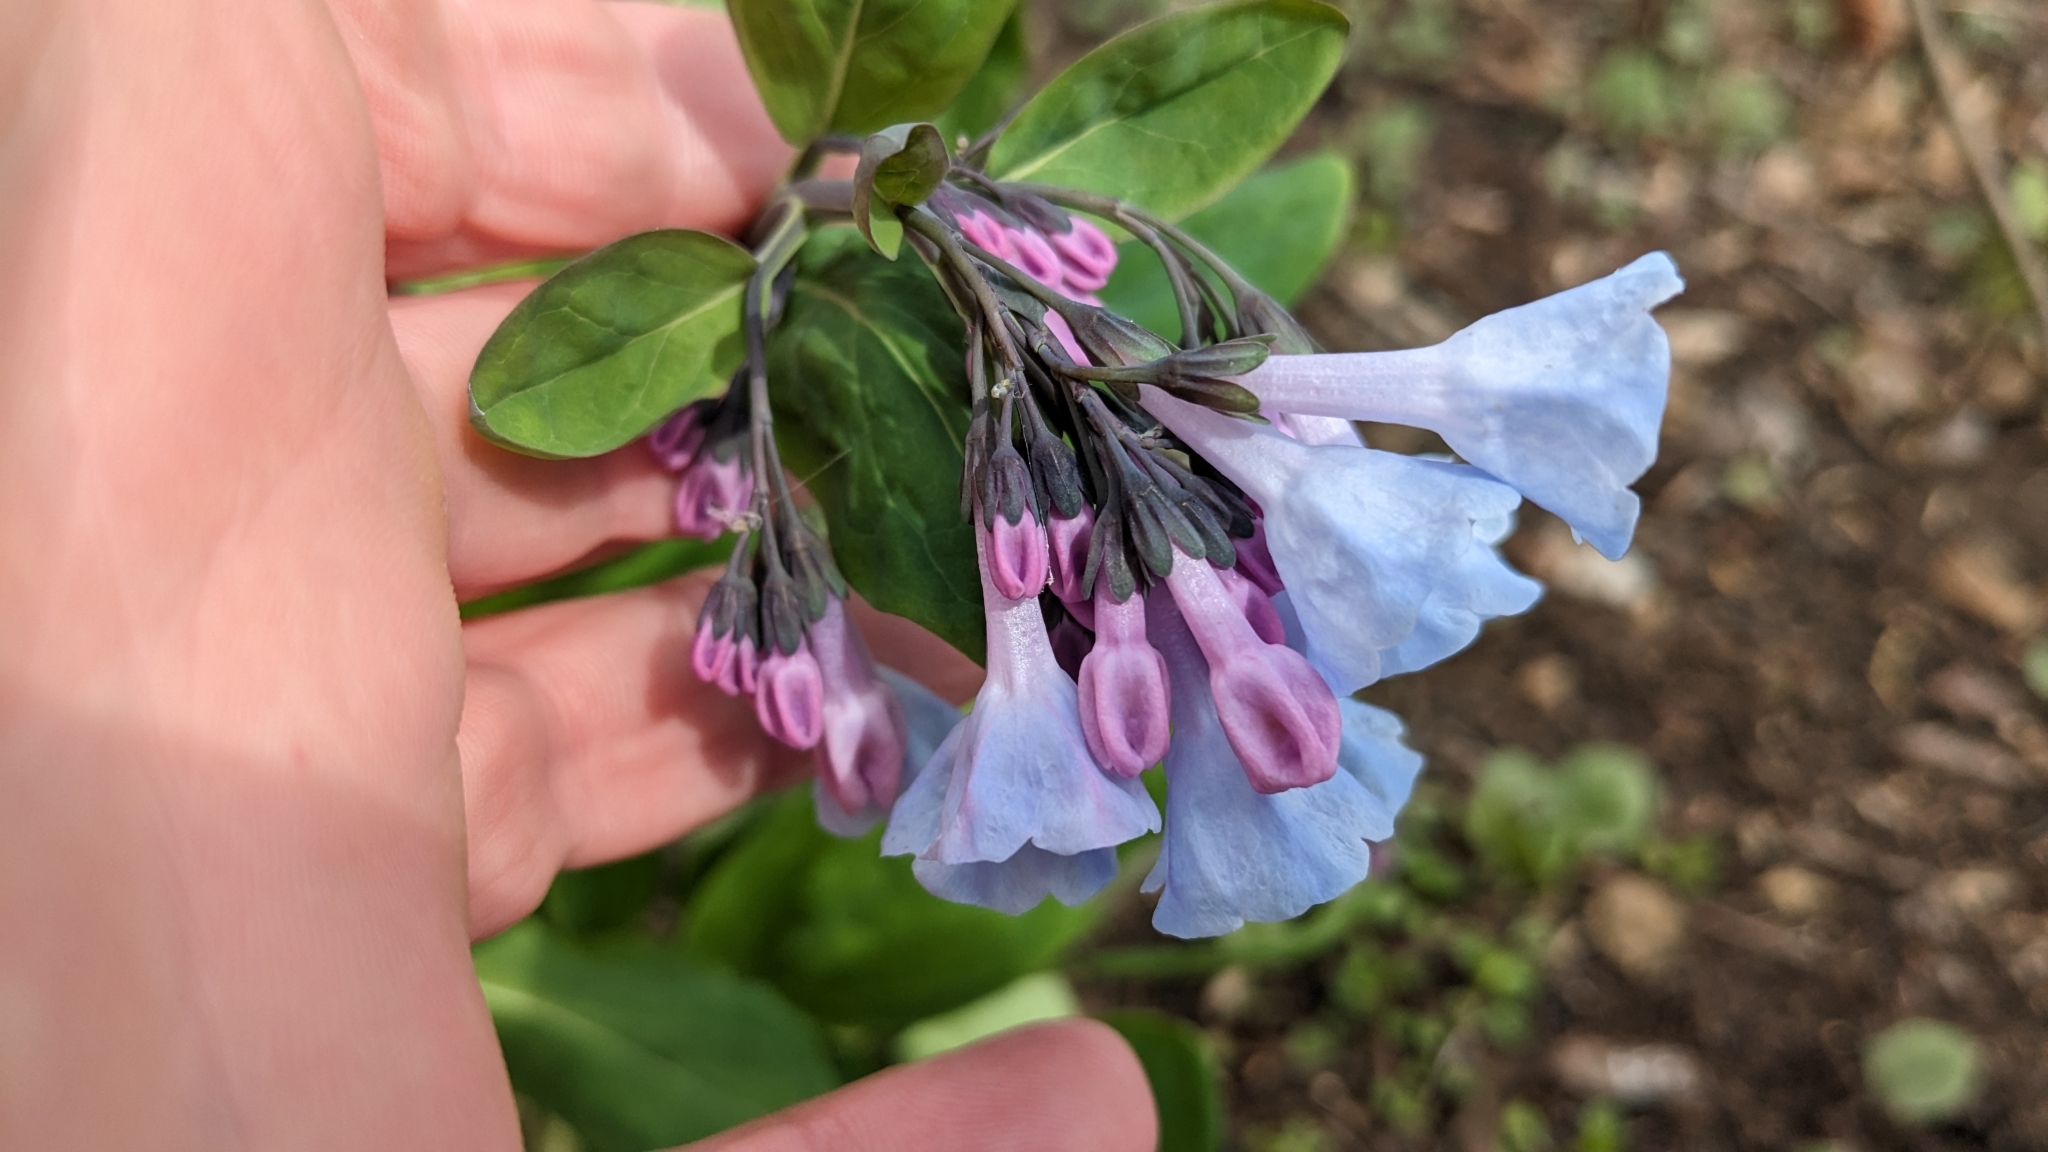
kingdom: Plantae
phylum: Tracheophyta
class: Magnoliopsida
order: Boraginales
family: Boraginaceae
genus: Mertensia
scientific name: Mertensia virginica
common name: Virginia bluebells
